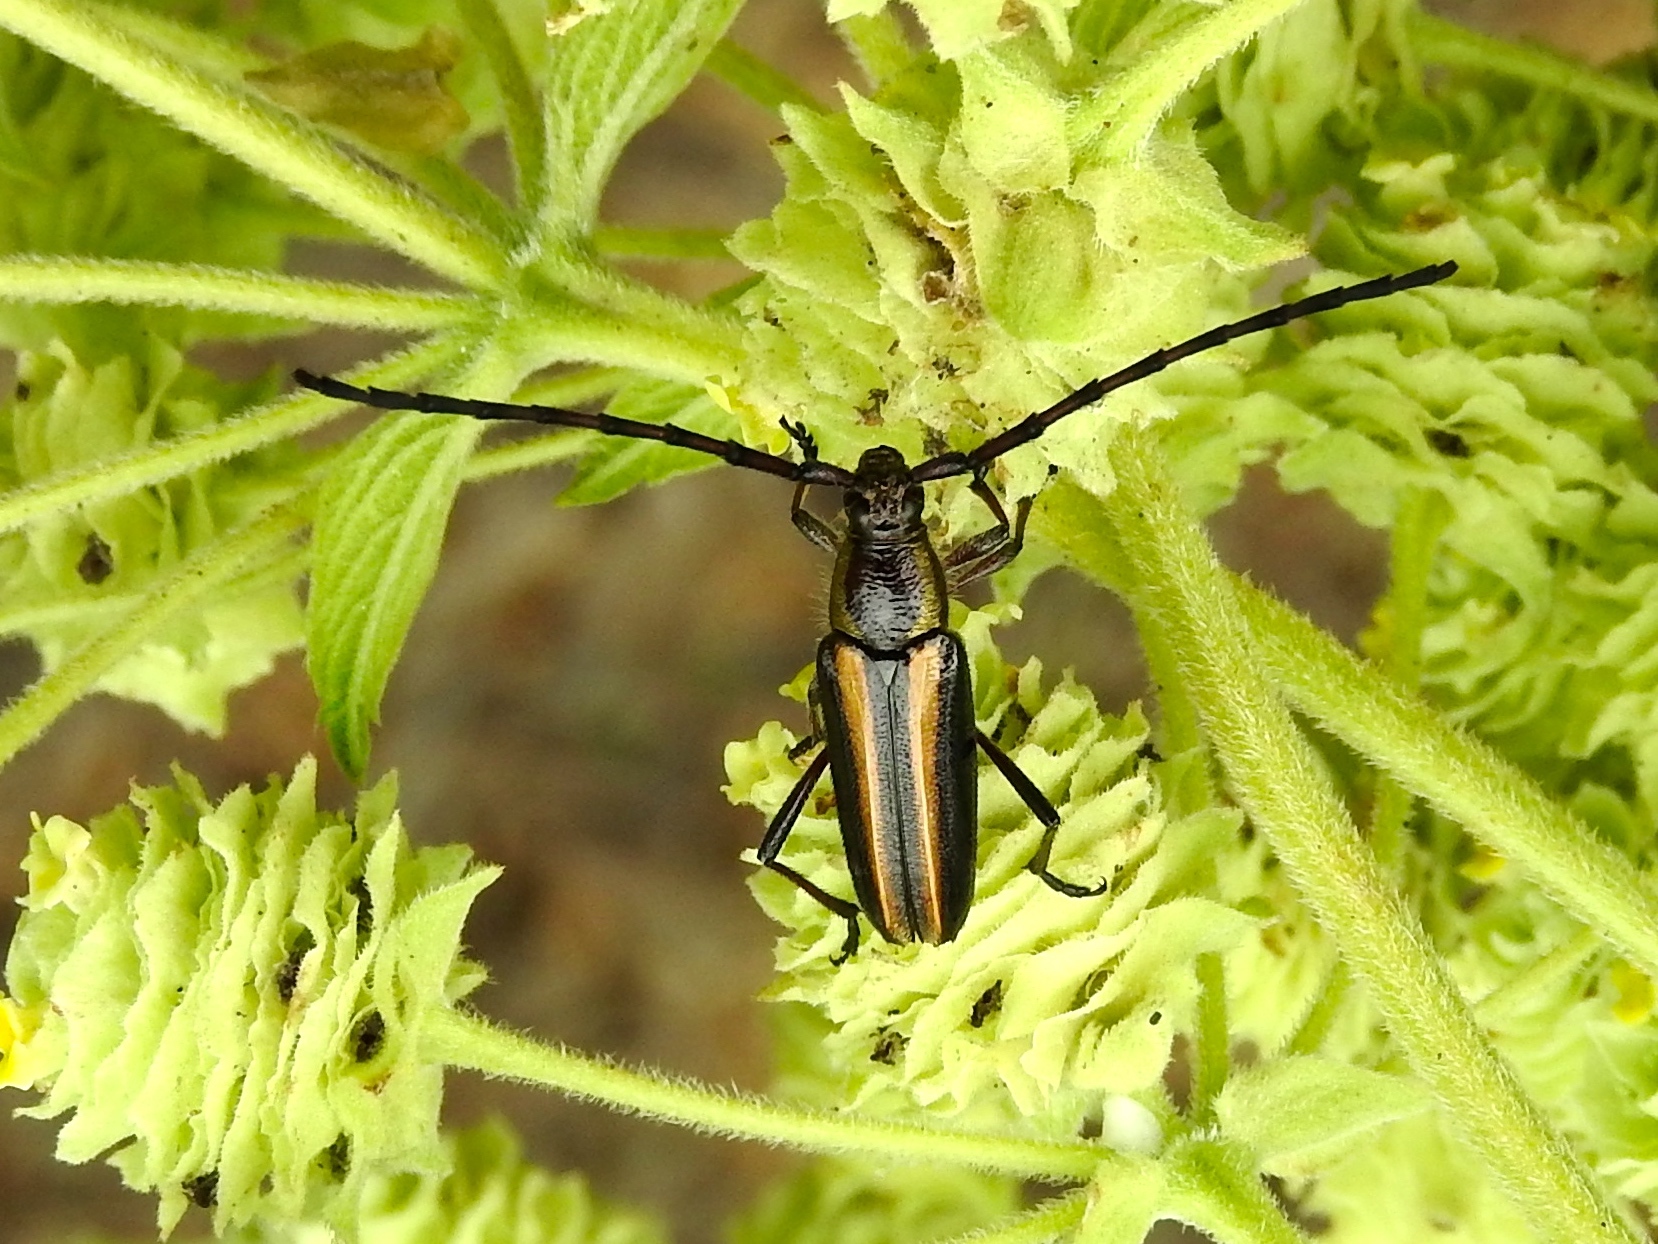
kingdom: Animalia
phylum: Arthropoda
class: Insecta
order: Coleoptera
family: Cerambycidae
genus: Sphaenothecus
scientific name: Sphaenothecus
